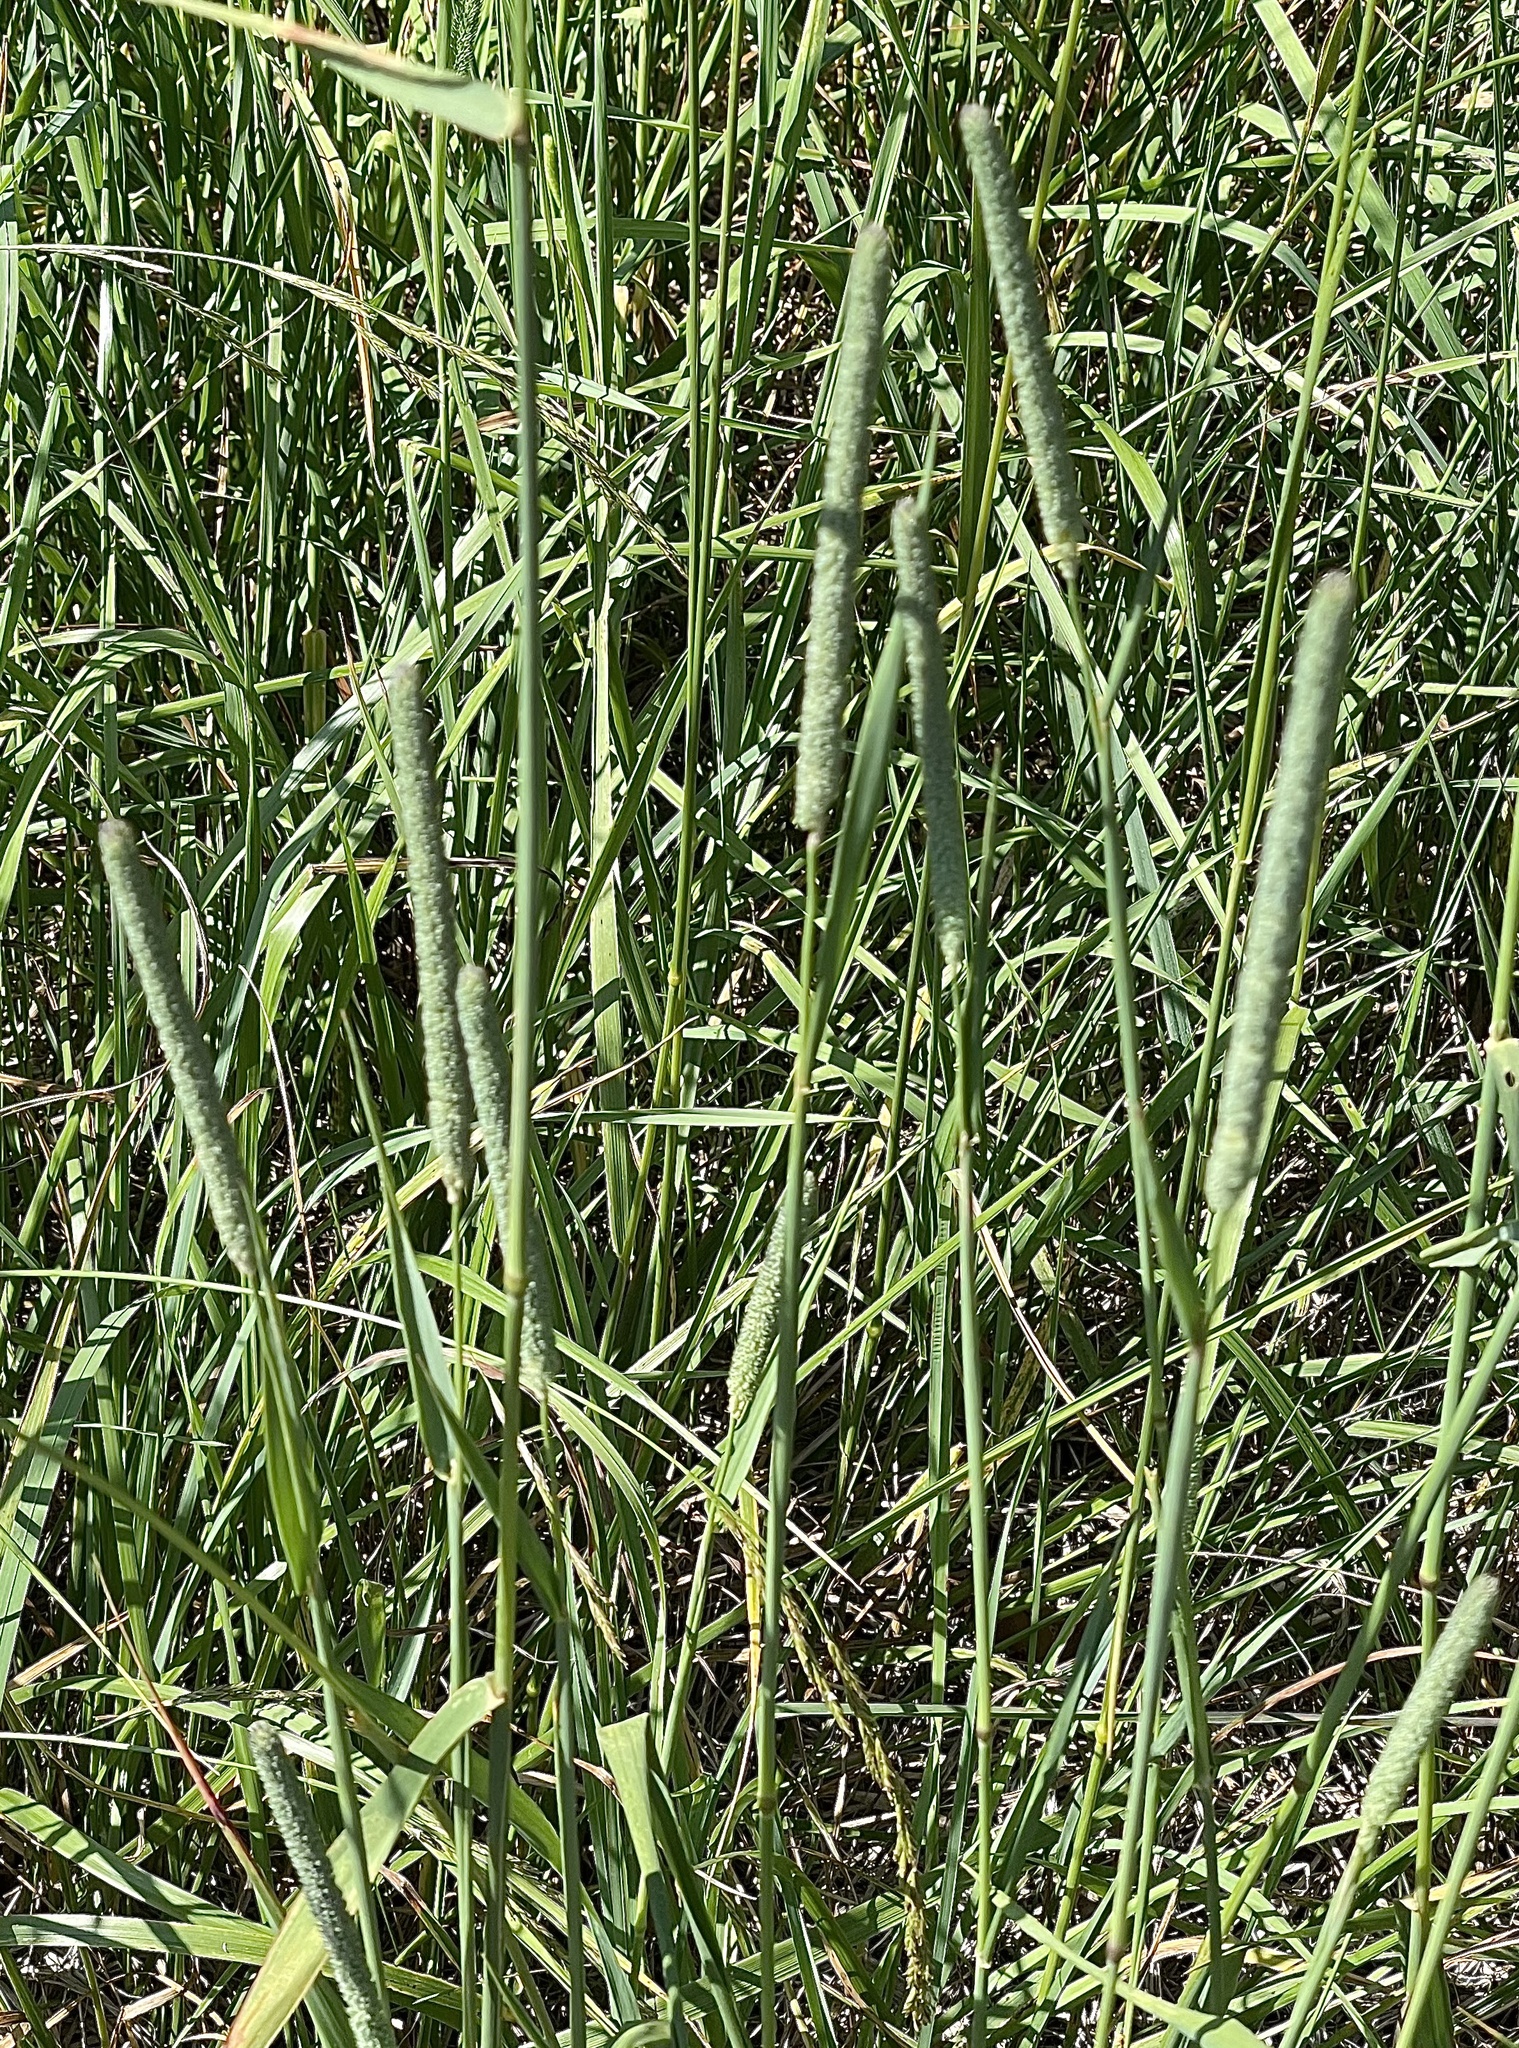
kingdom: Plantae
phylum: Tracheophyta
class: Liliopsida
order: Poales
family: Poaceae
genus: Phleum
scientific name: Phleum pratense
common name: Timothy grass
